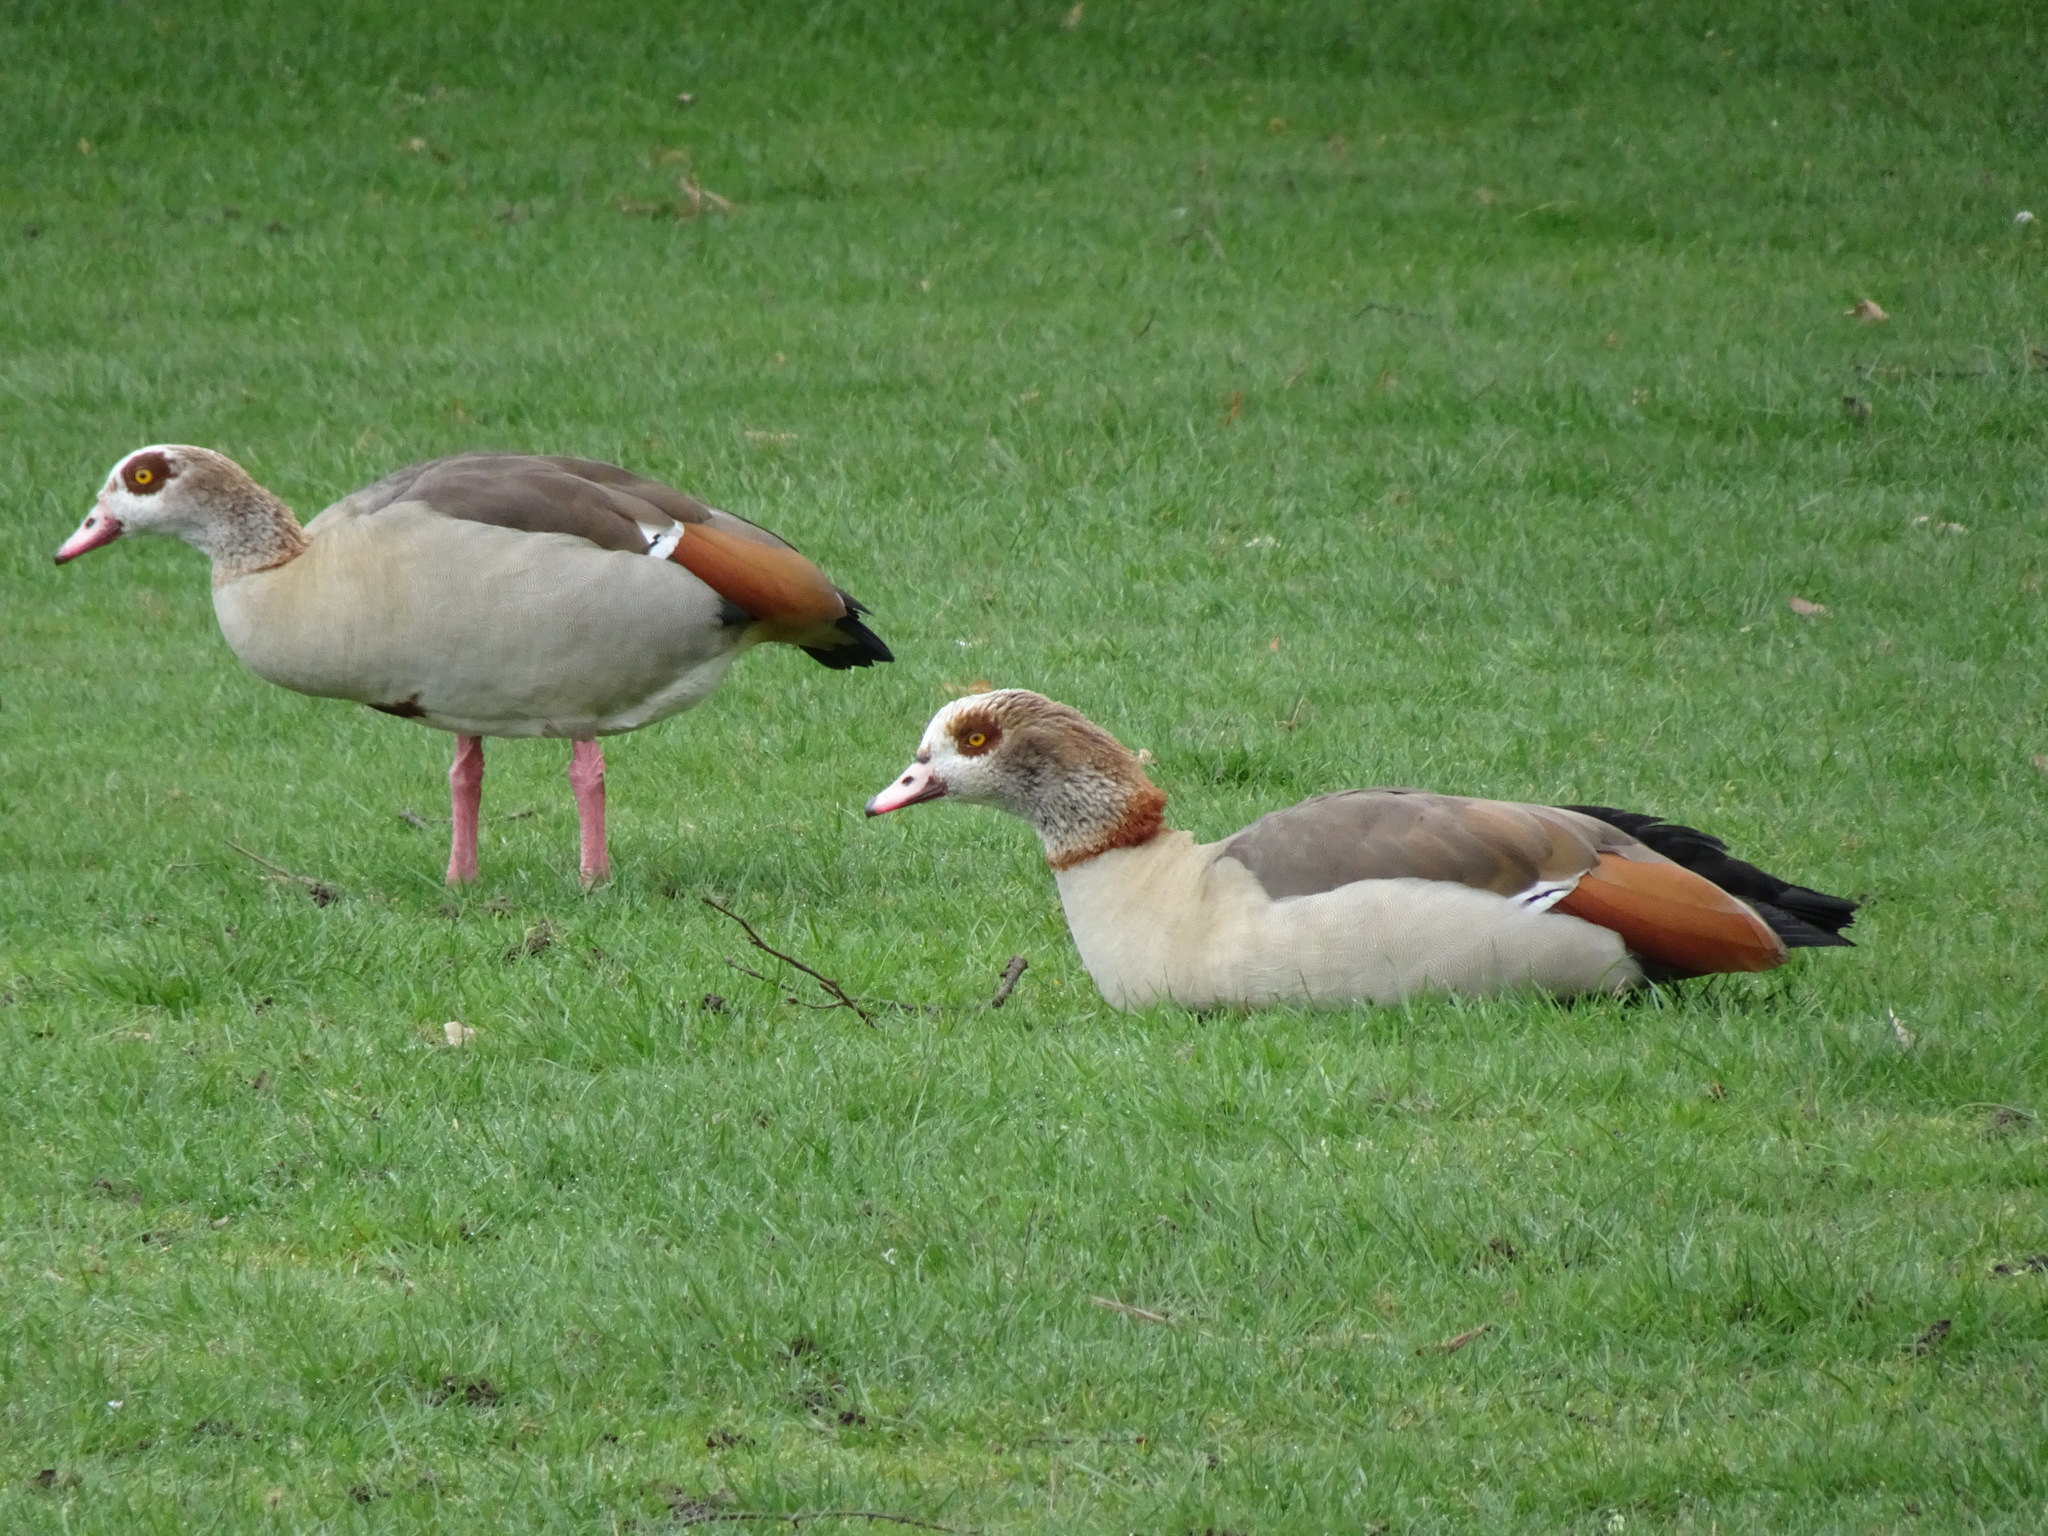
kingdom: Animalia
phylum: Chordata
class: Aves
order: Anseriformes
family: Anatidae
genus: Alopochen
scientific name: Alopochen aegyptiaca
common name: Egyptian goose
